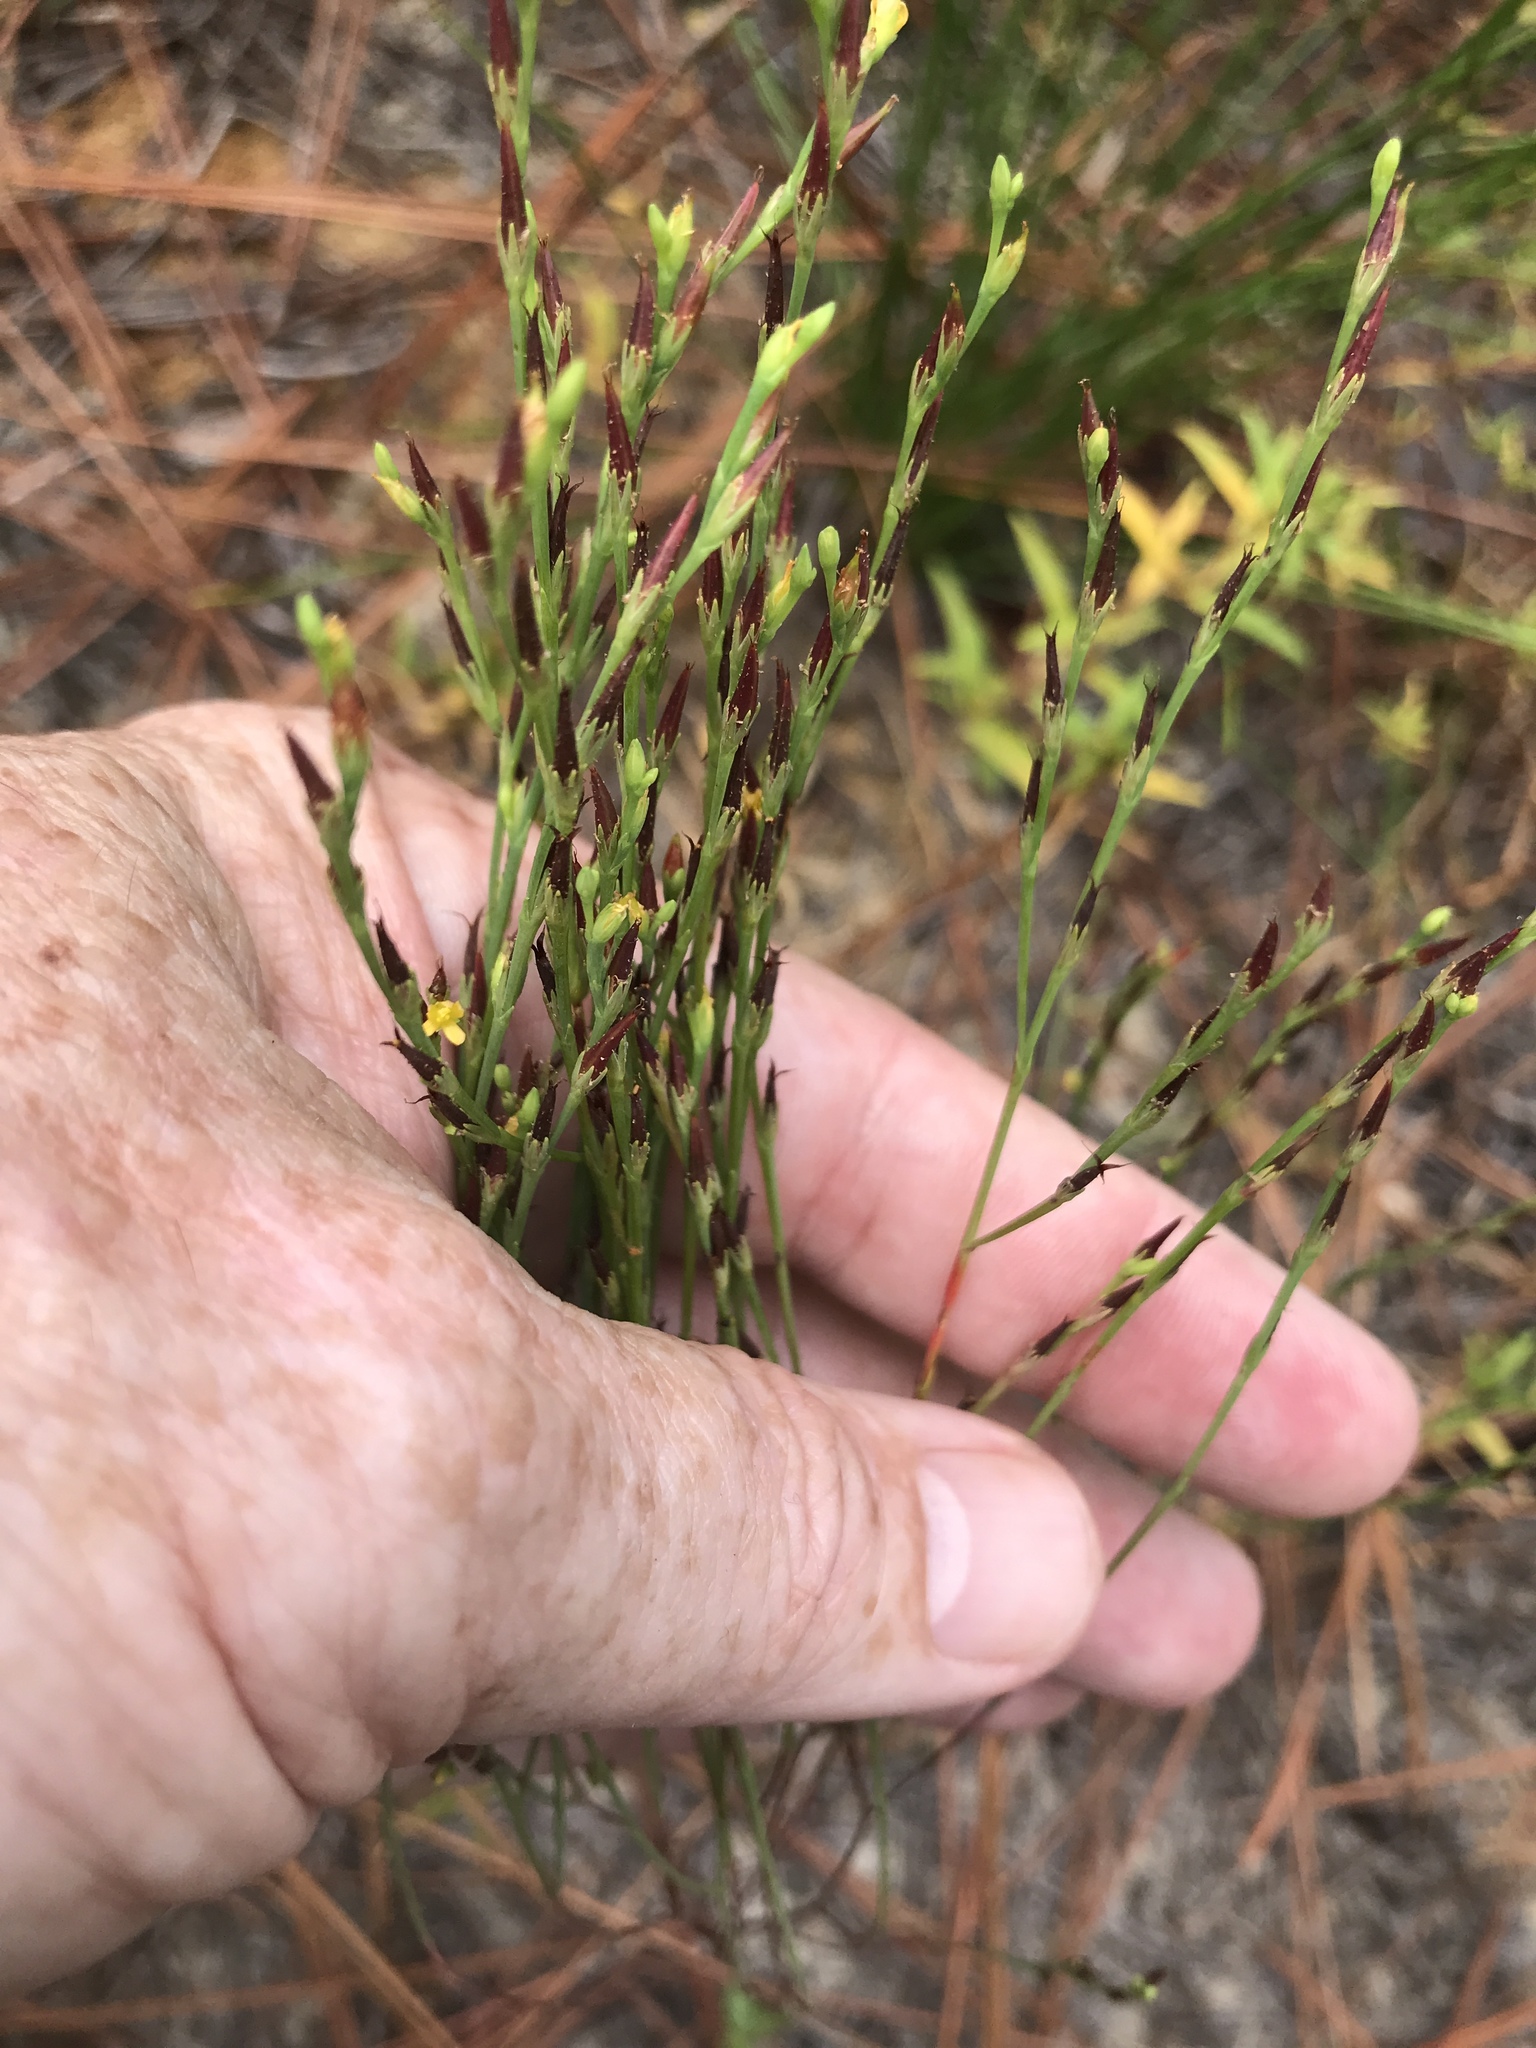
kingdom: Plantae
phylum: Tracheophyta
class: Magnoliopsida
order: Malpighiales
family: Hypericaceae
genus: Hypericum
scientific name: Hypericum gentianoides
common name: Gentian-leaved st. john's-wort
